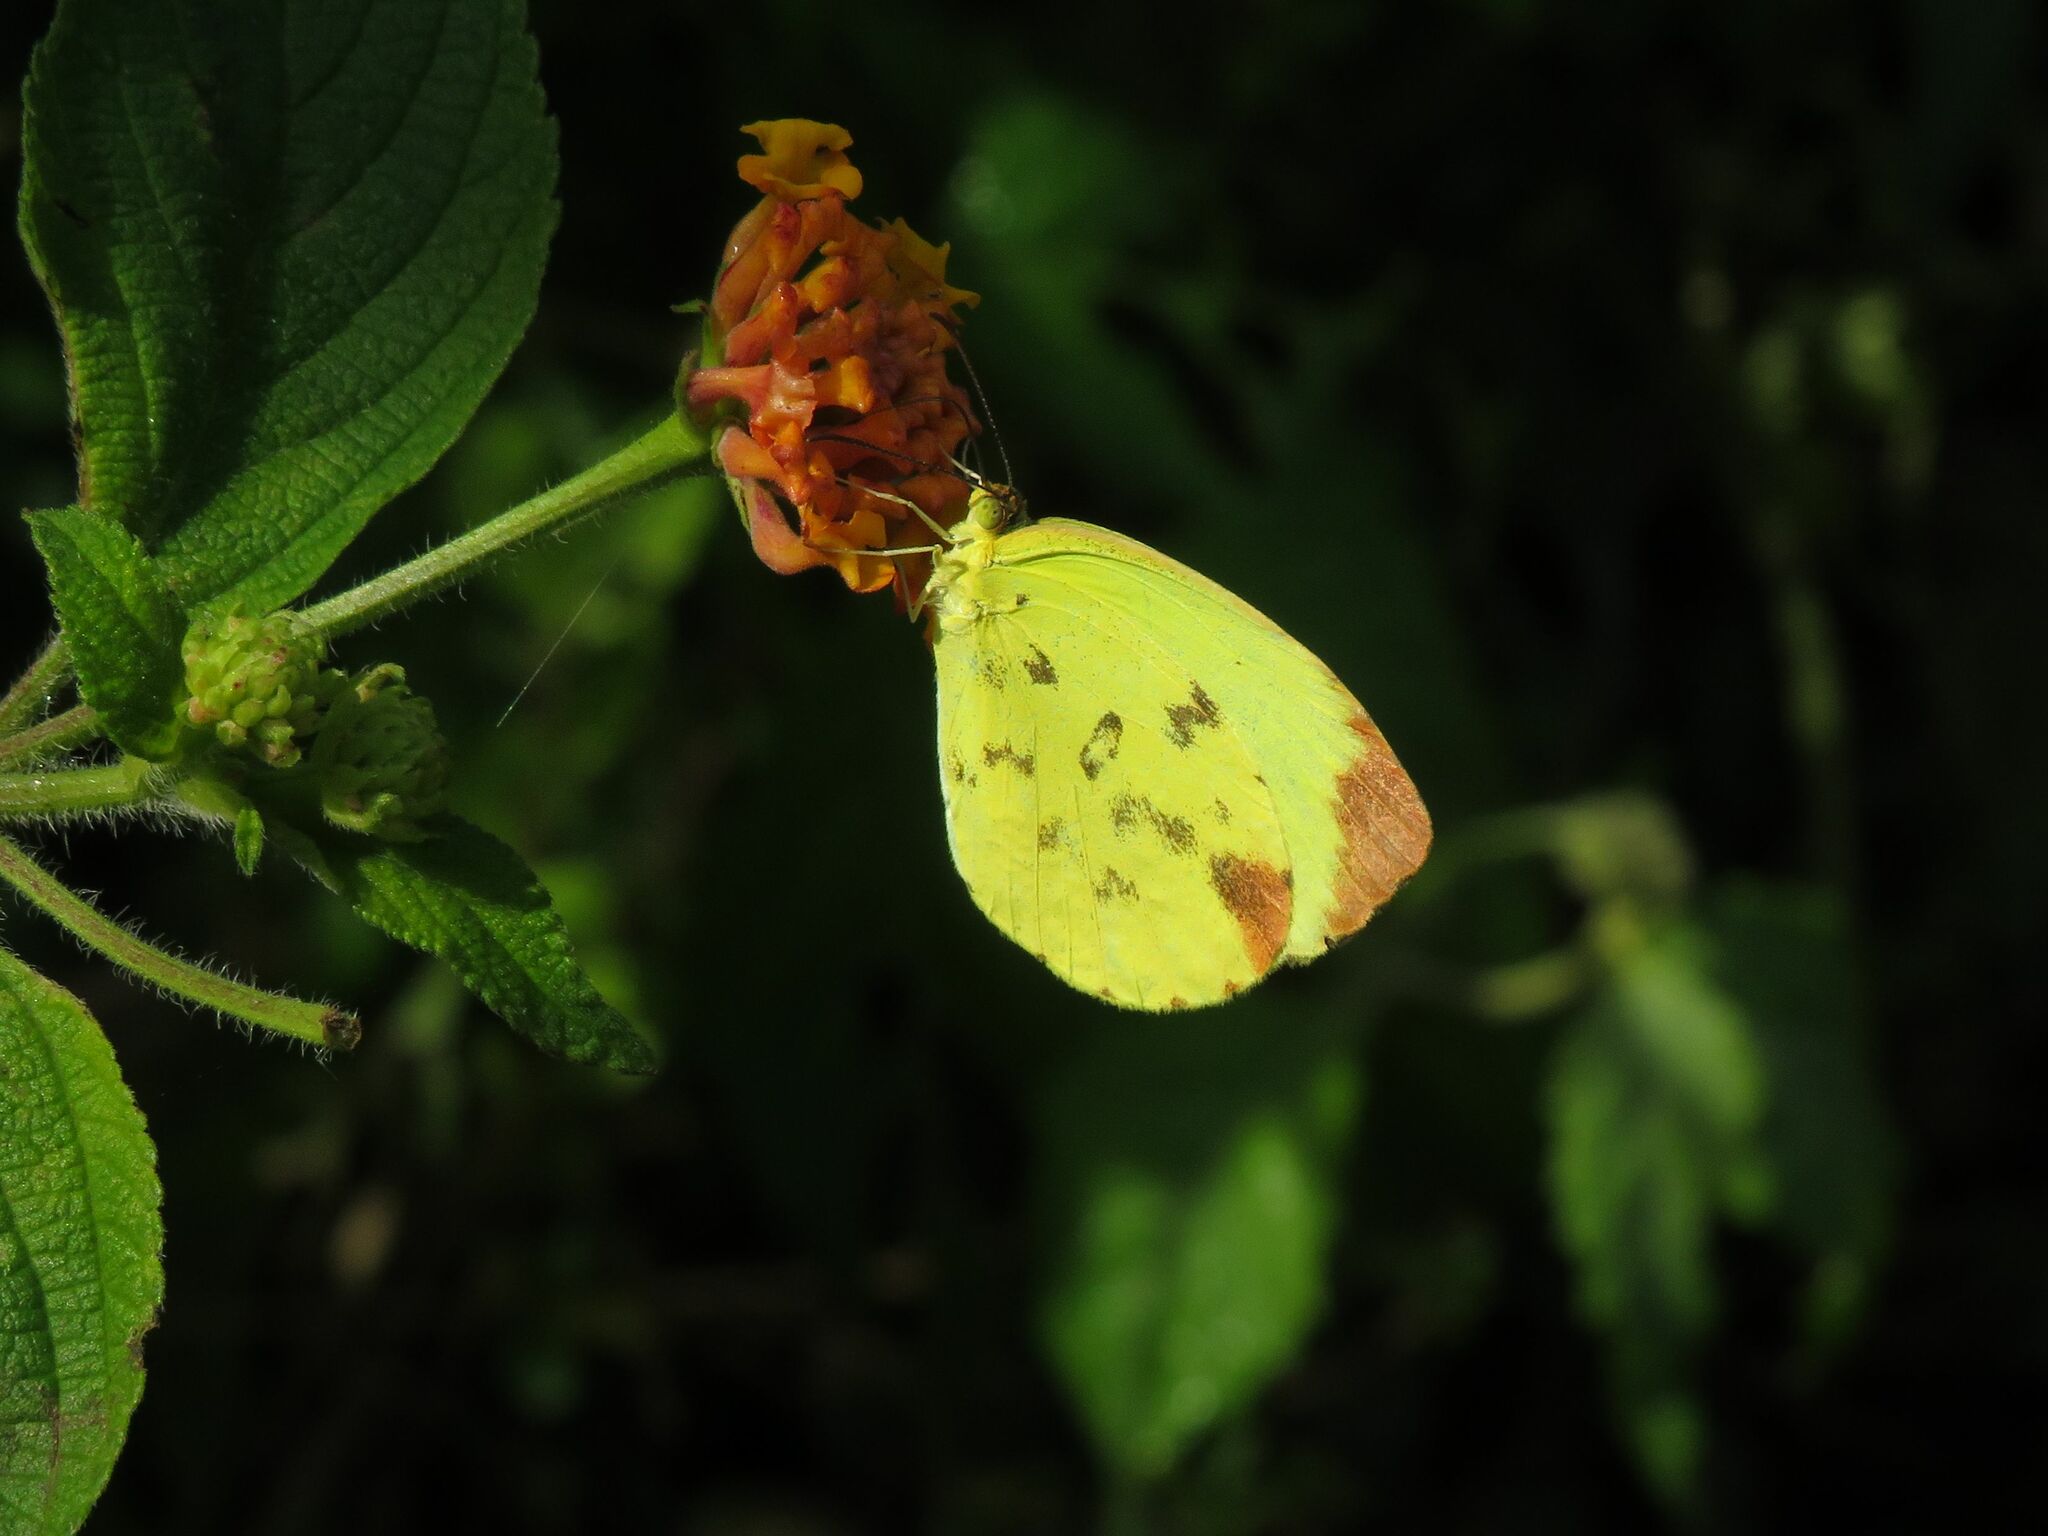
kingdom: Animalia
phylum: Arthropoda
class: Insecta
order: Lepidoptera
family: Pieridae
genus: Pyrisitia
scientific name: Pyrisitia leuce
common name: Hall's sulfur
